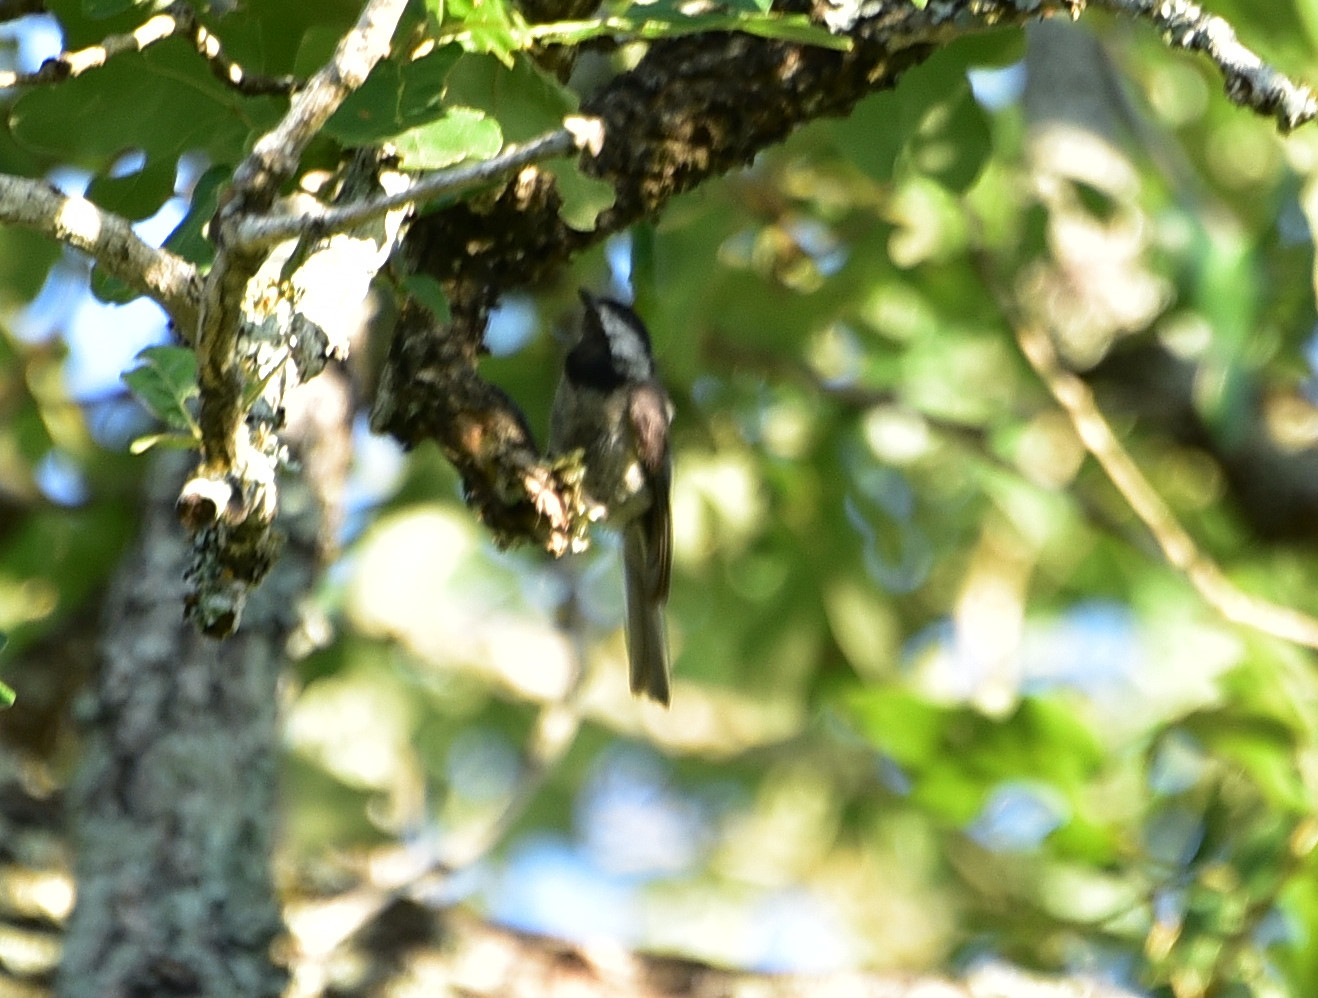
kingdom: Animalia
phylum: Chordata
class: Aves
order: Passeriformes
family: Paridae
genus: Poecile
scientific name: Poecile carolinensis
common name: Carolina chickadee
